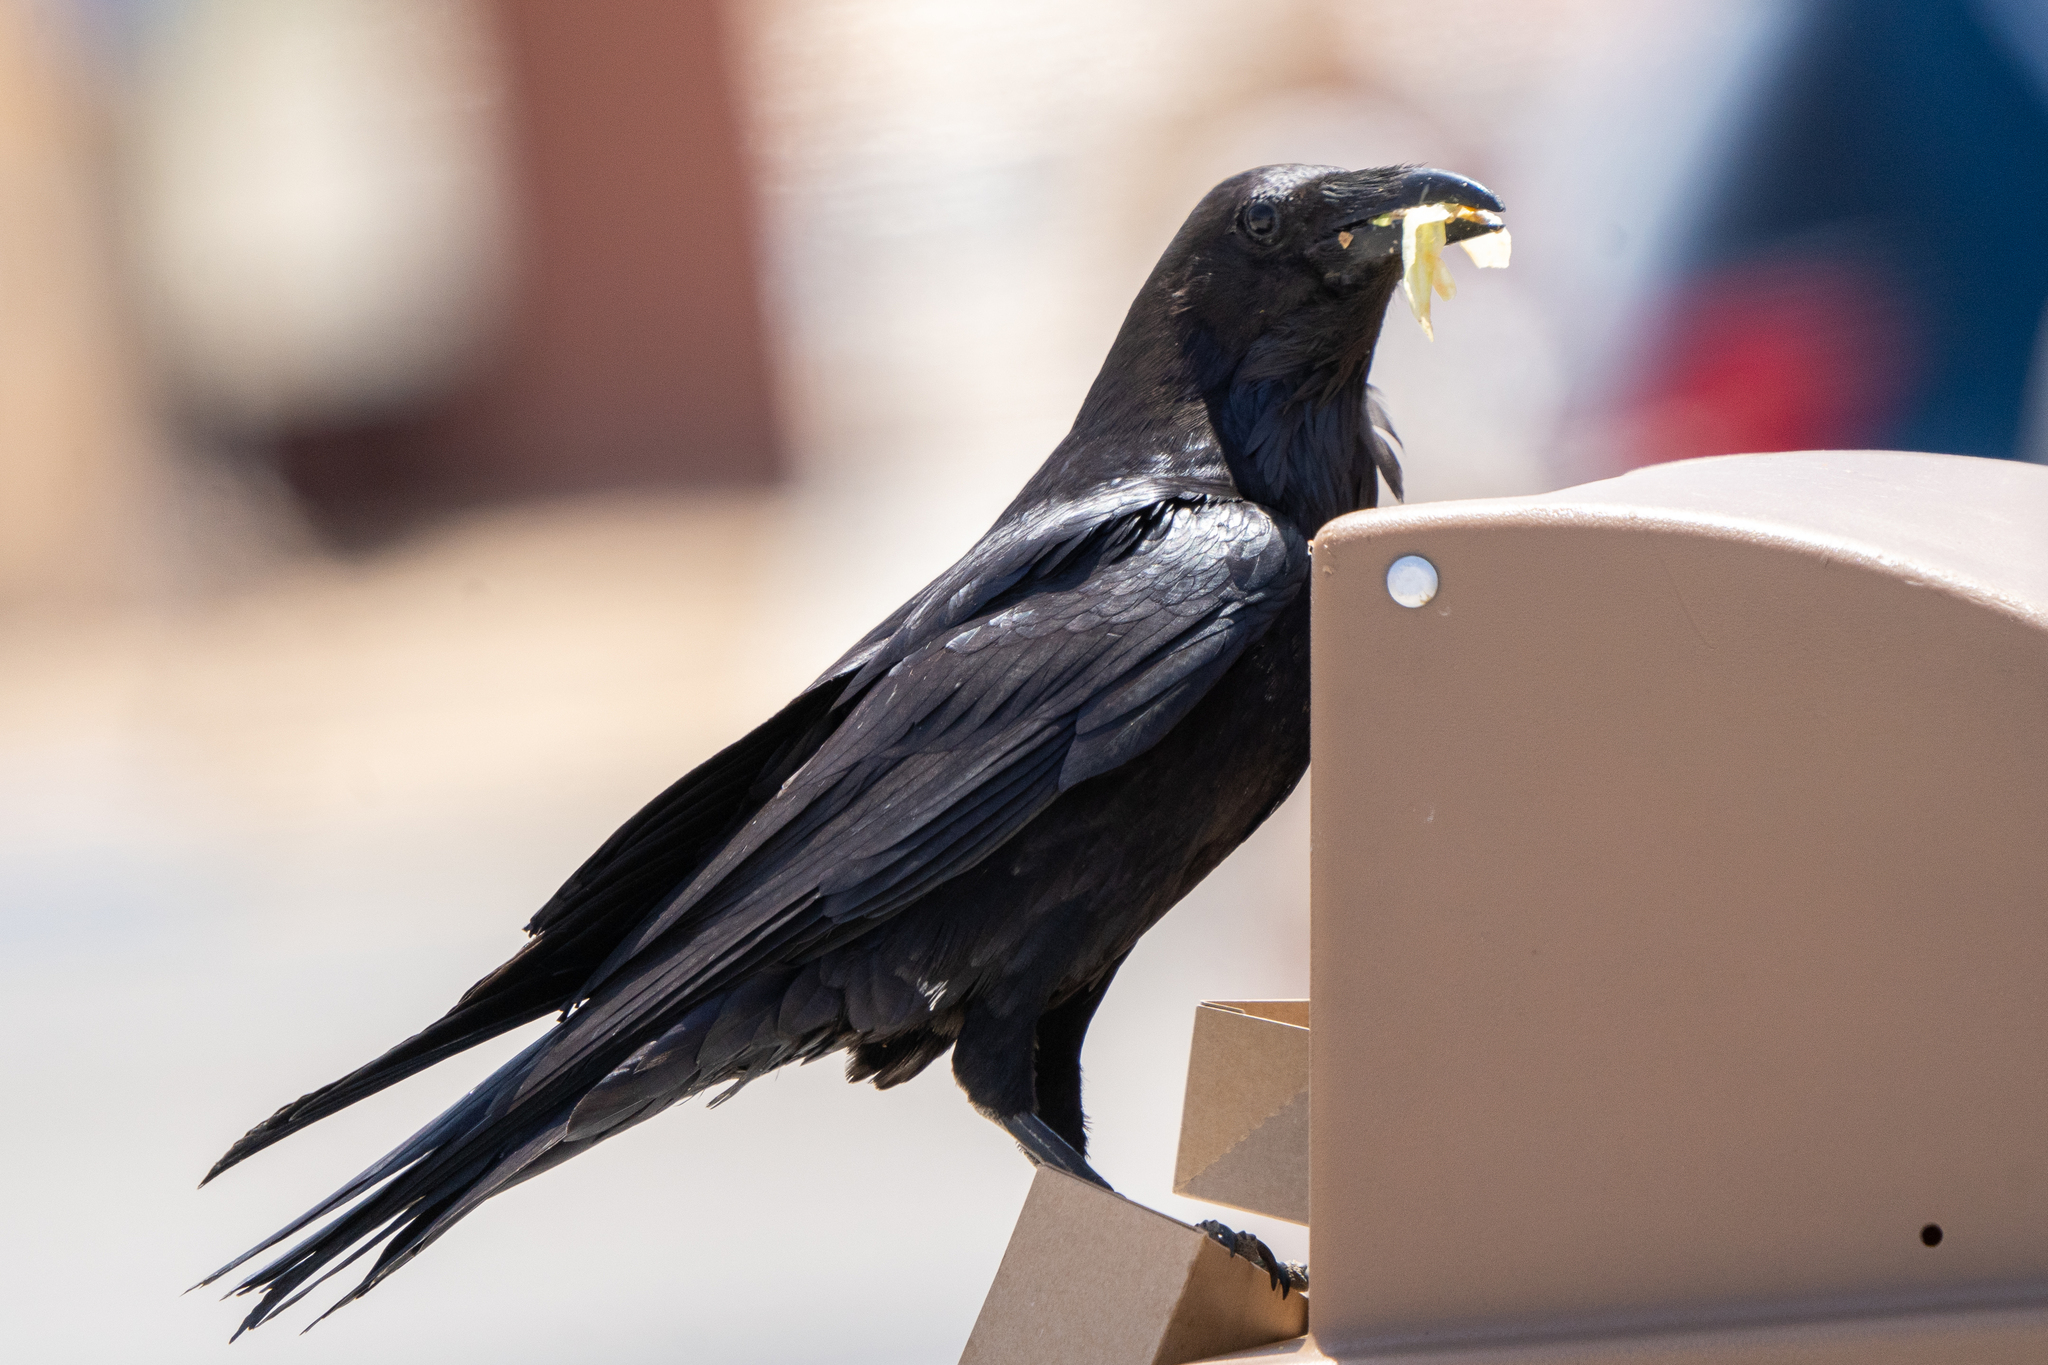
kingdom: Animalia
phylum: Chordata
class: Aves
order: Passeriformes
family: Corvidae
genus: Corvus
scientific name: Corvus corax
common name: Common raven
